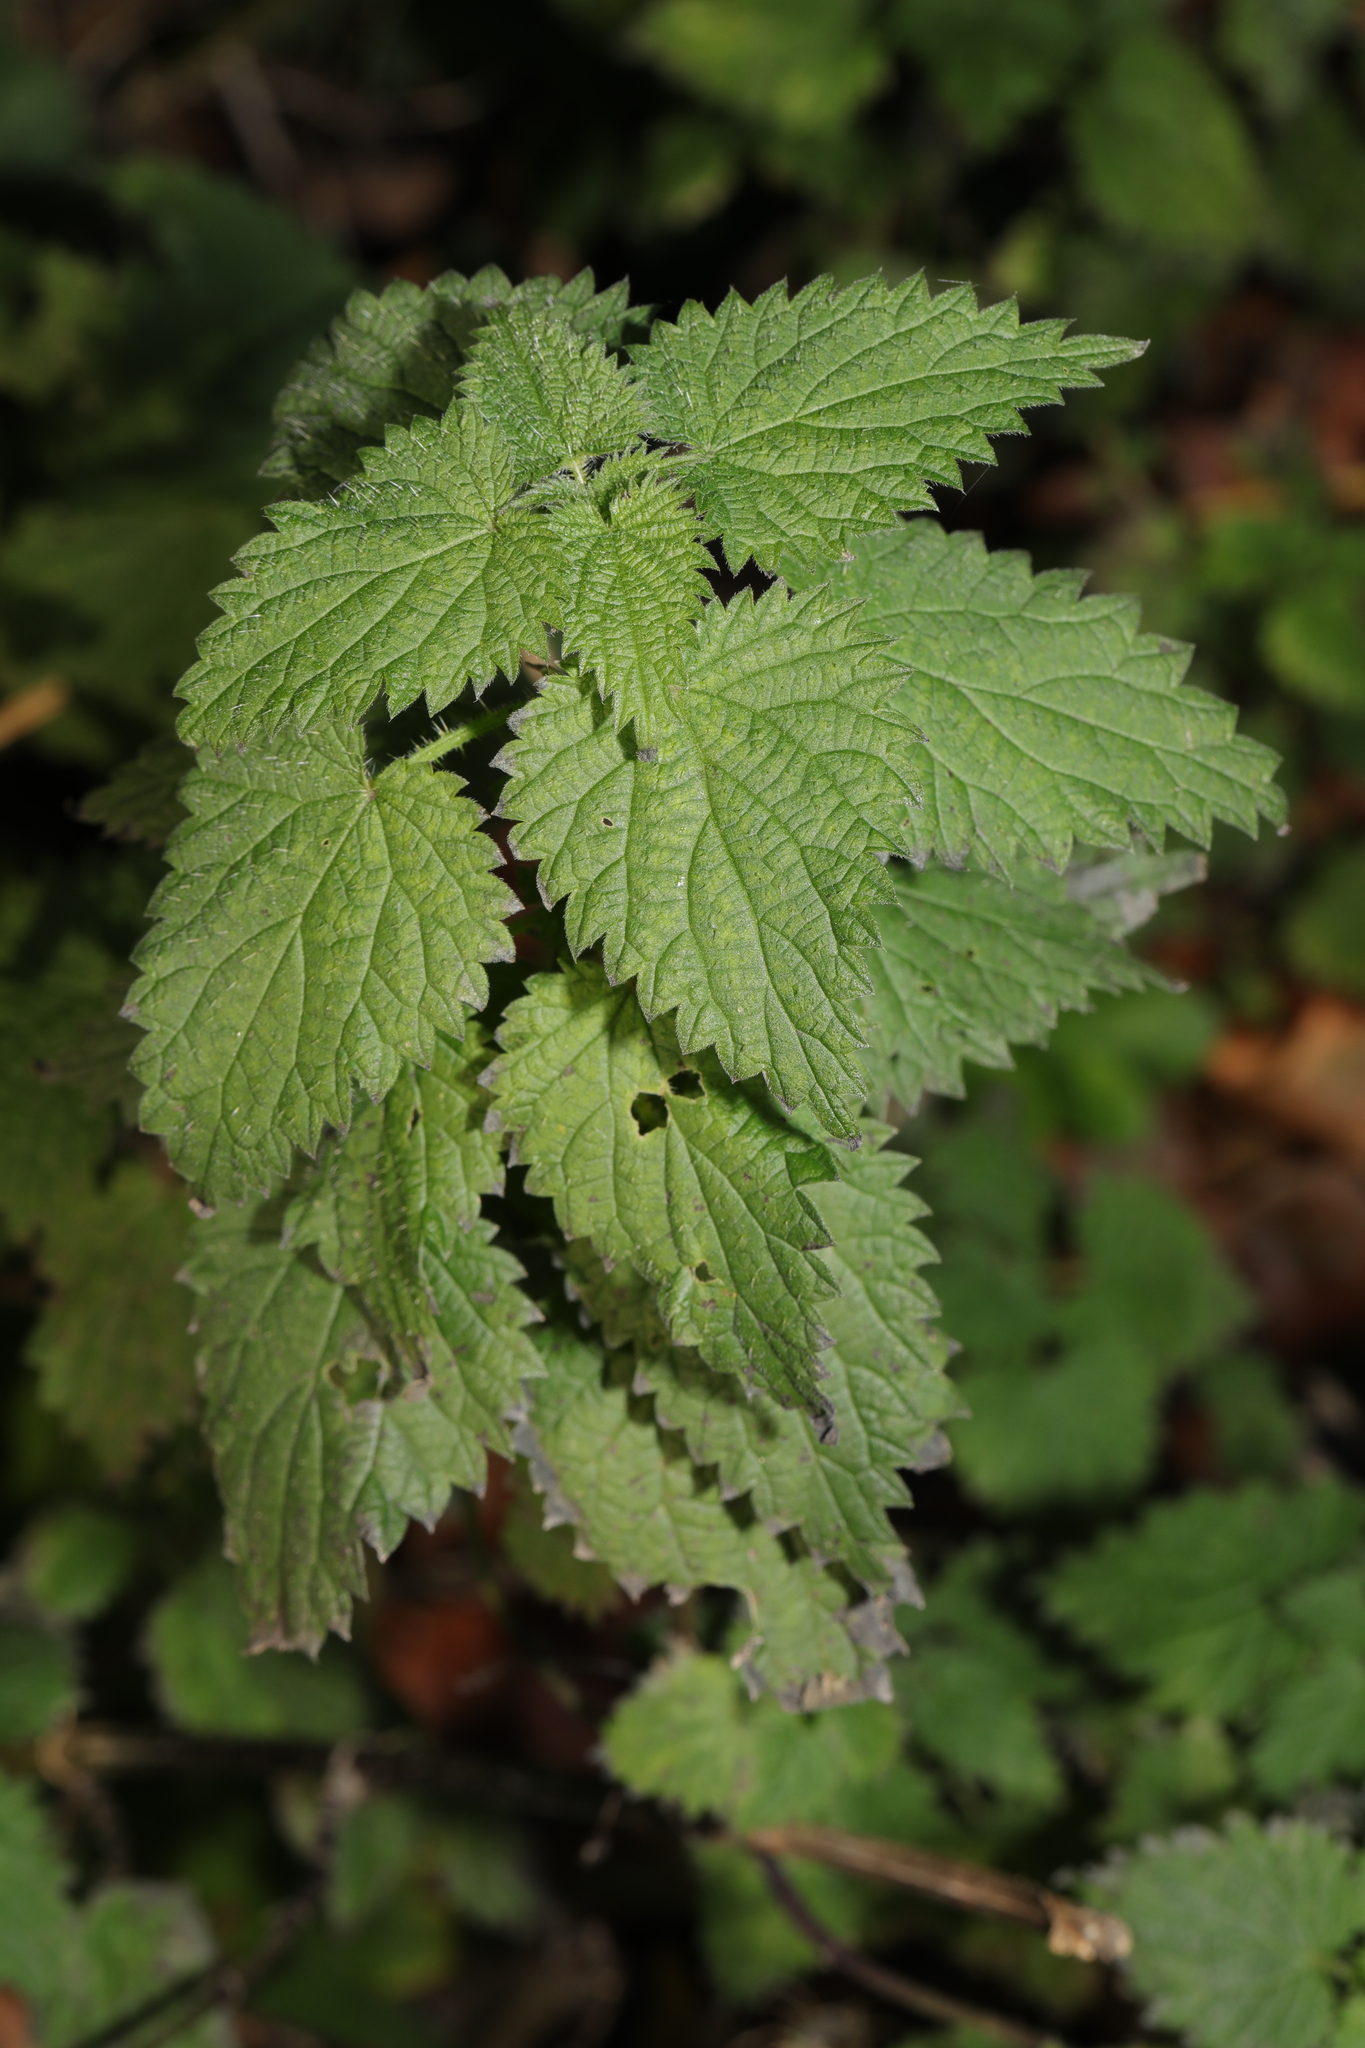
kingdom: Plantae
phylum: Tracheophyta
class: Magnoliopsida
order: Rosales
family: Urticaceae
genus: Urtica
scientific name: Urtica dioica
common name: Common nettle
